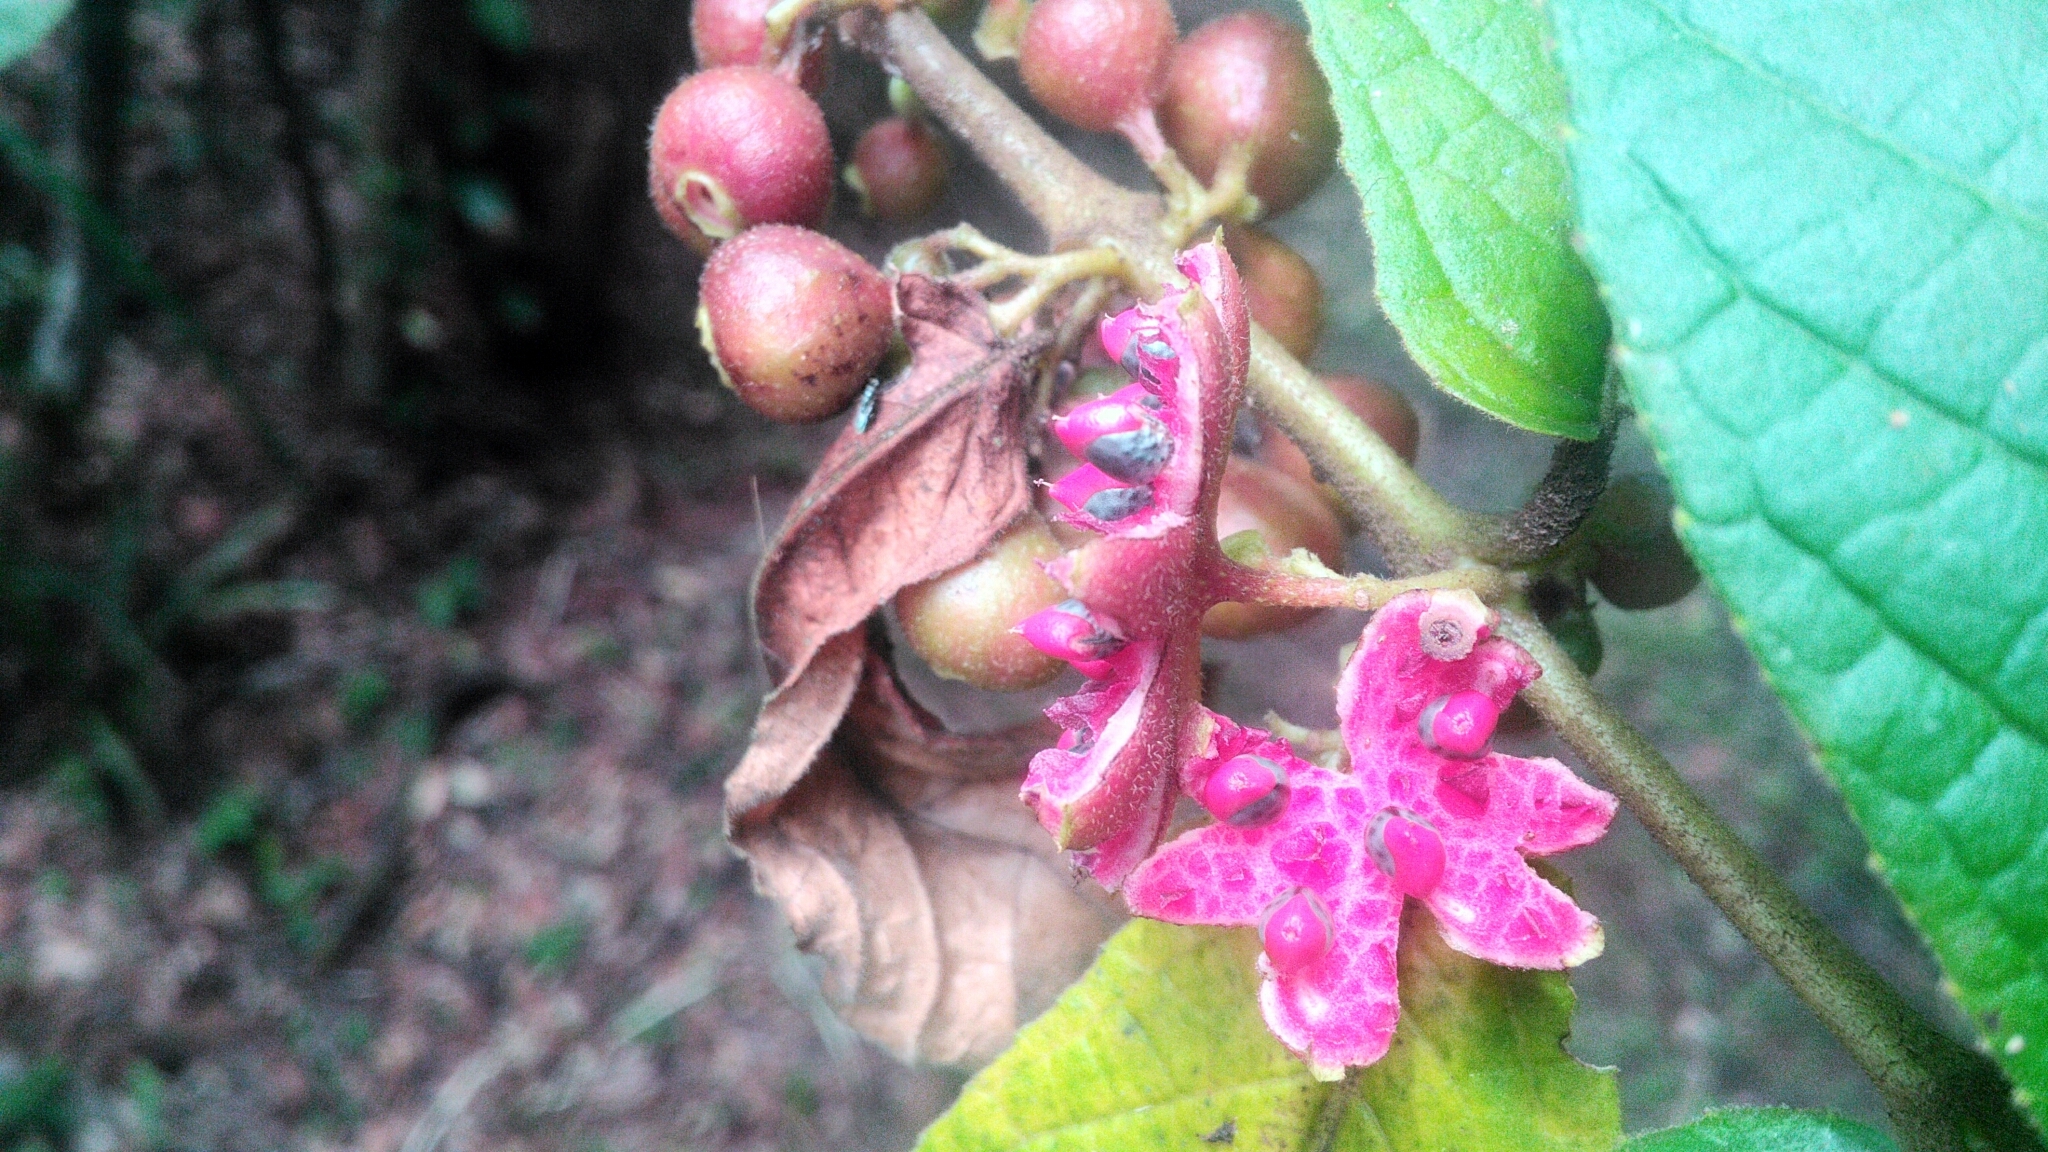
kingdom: Plantae
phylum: Tracheophyta
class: Magnoliopsida
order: Laurales
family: Siparunaceae
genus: Siparuna
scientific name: Siparuna brasiliensis
